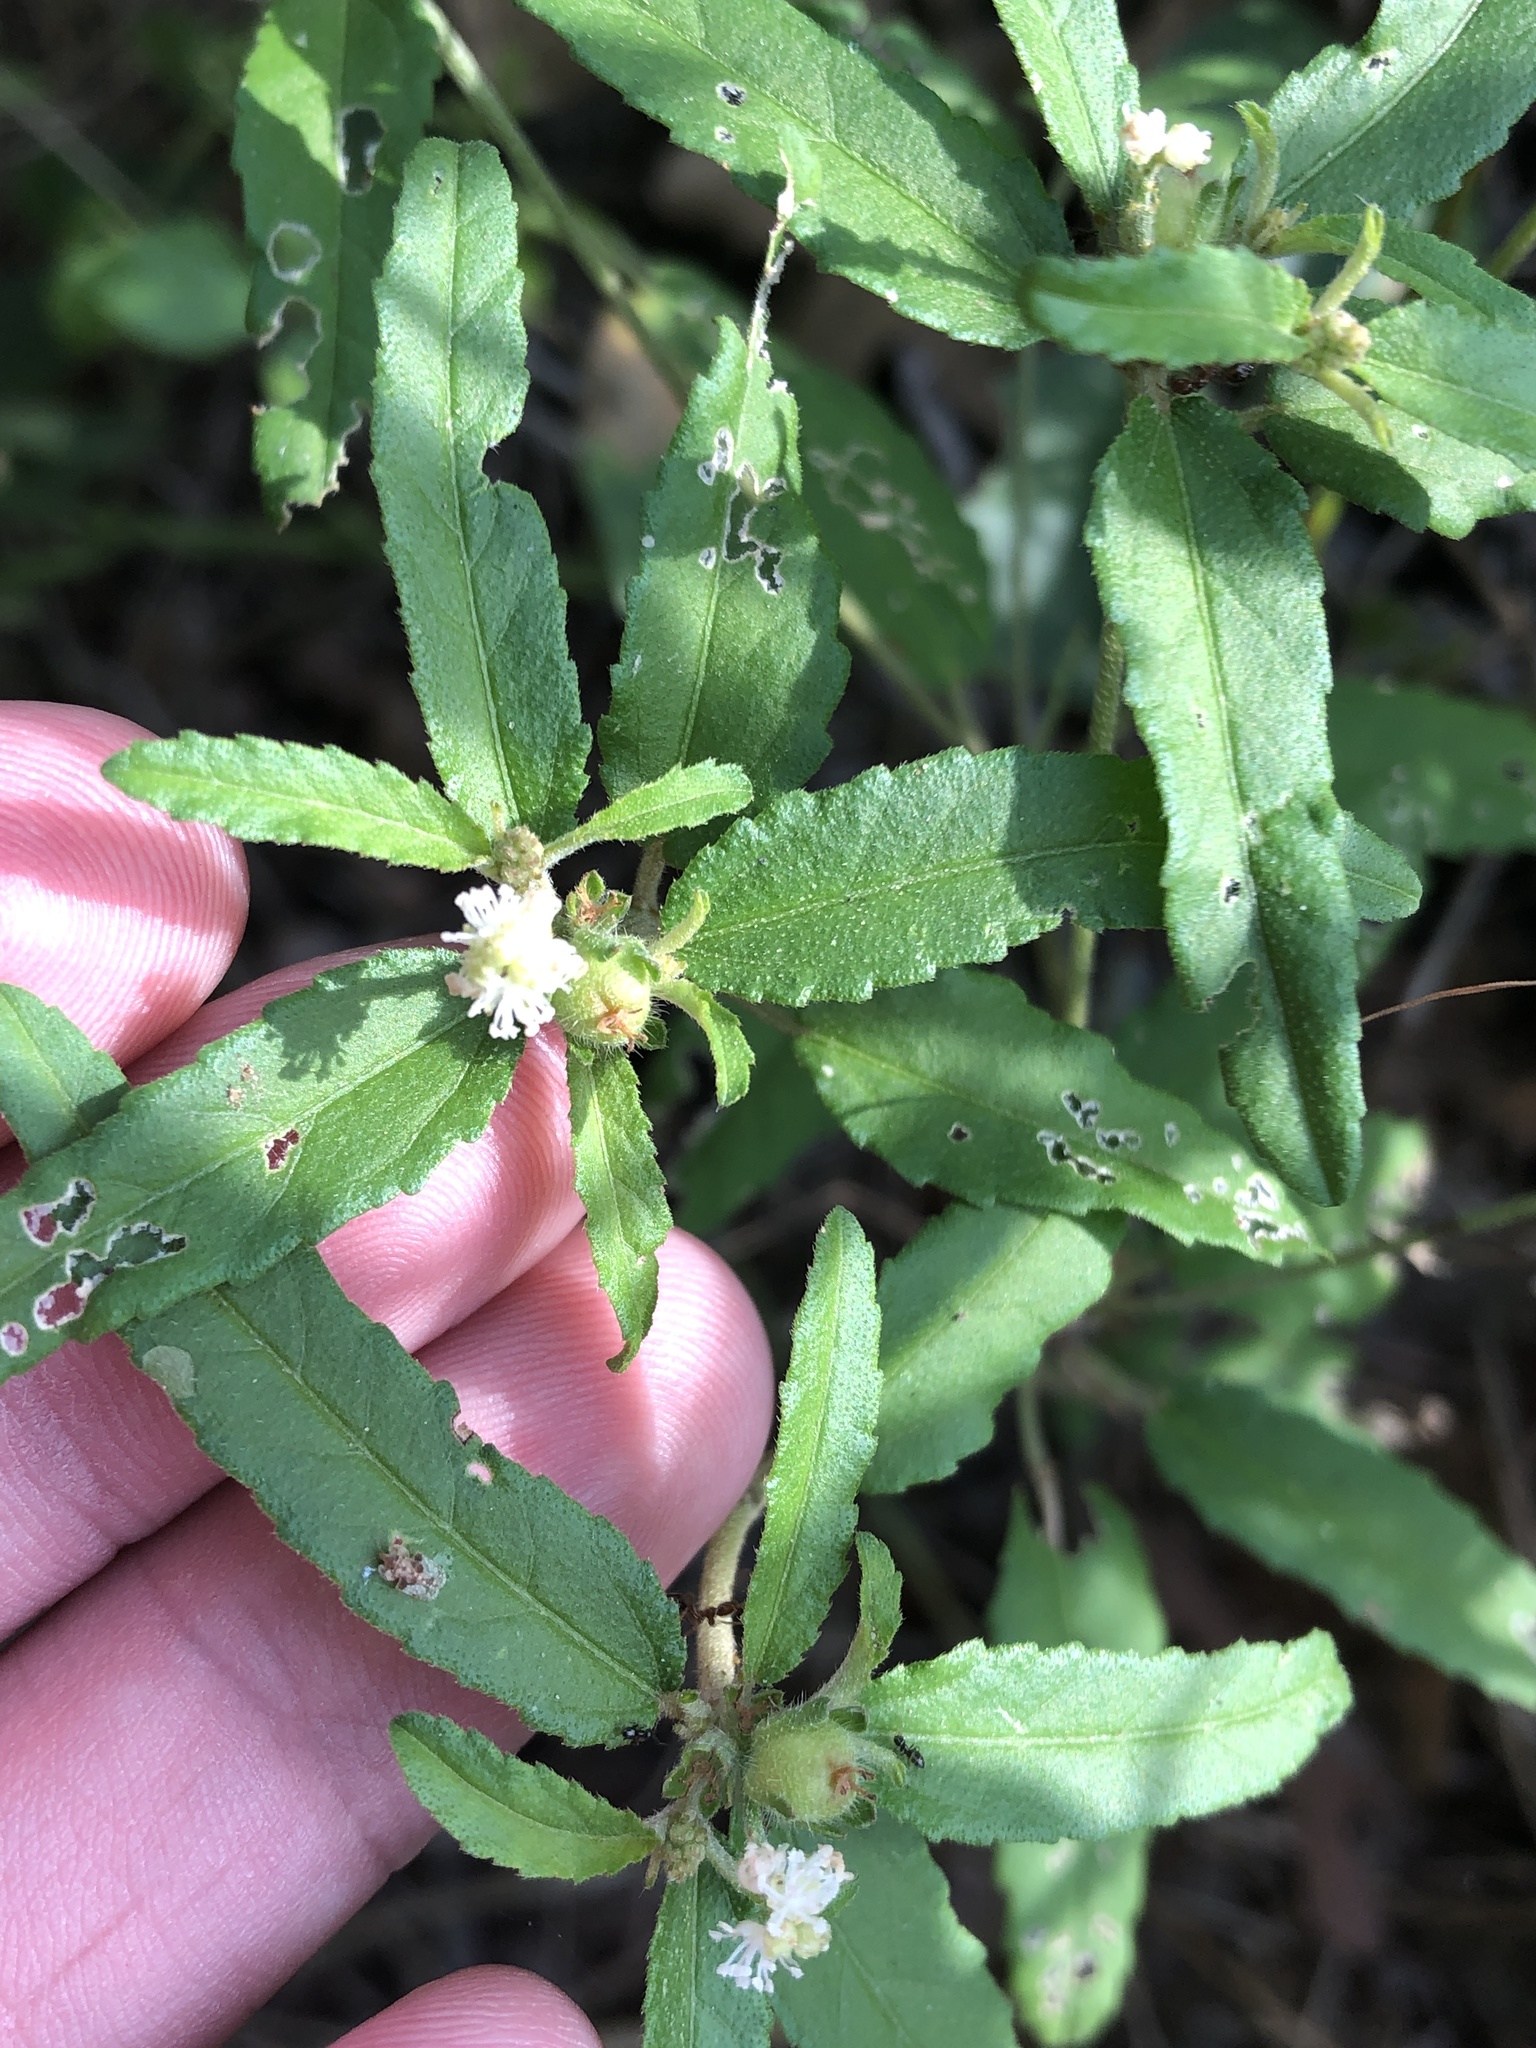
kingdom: Plantae
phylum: Tracheophyta
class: Magnoliopsida
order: Malpighiales
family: Euphorbiaceae
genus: Croton
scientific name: Croton glandulosus
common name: Tropic croton
